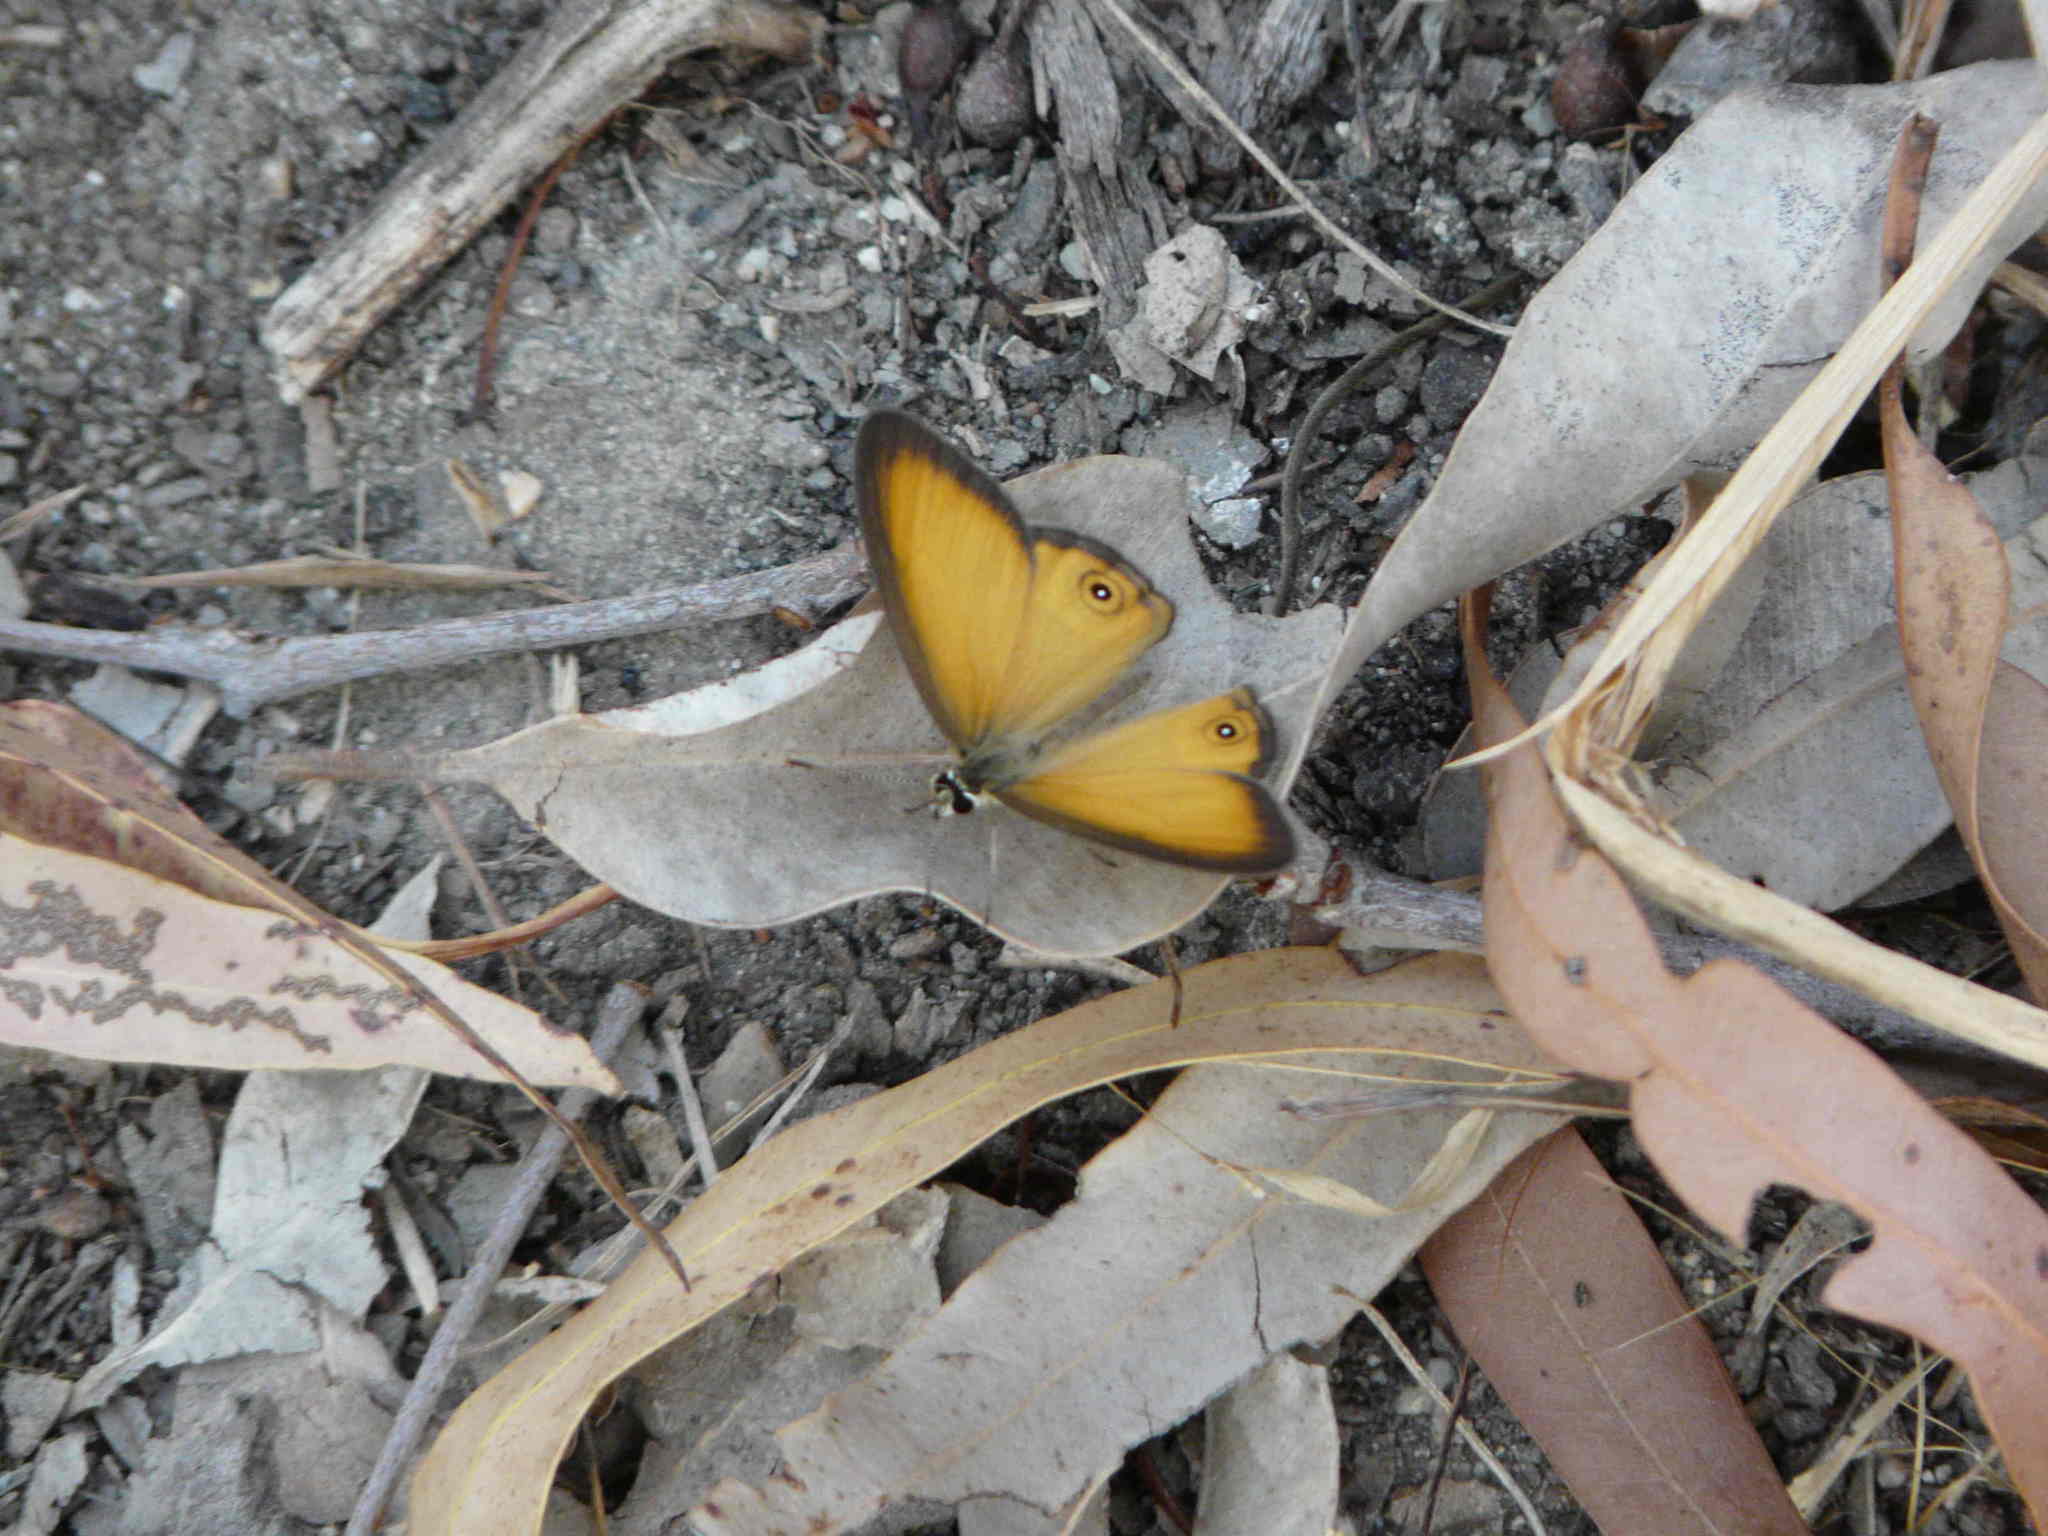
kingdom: Animalia
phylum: Arthropoda
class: Insecta
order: Lepidoptera
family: Nymphalidae
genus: Hypocysta
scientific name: Hypocysta adiante
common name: Orange ringlet
